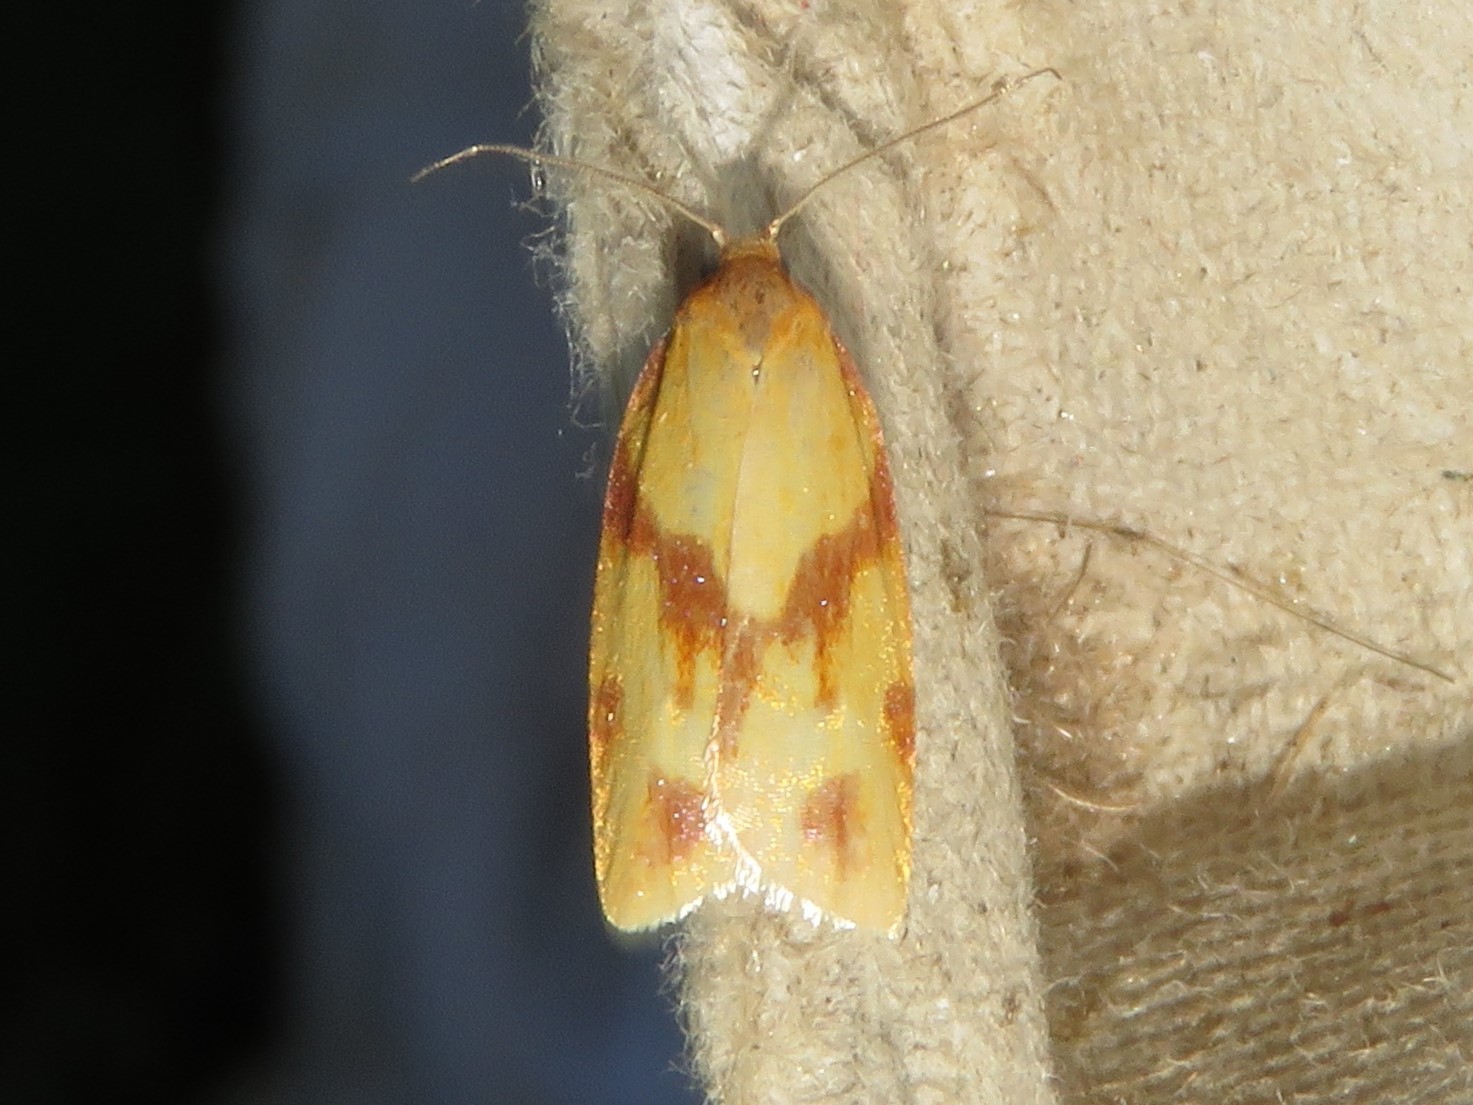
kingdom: Animalia
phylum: Arthropoda
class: Insecta
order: Lepidoptera
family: Tortricidae
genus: Sparganothis
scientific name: Sparganothis unifasciana
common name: One-lined sparganothis moth
